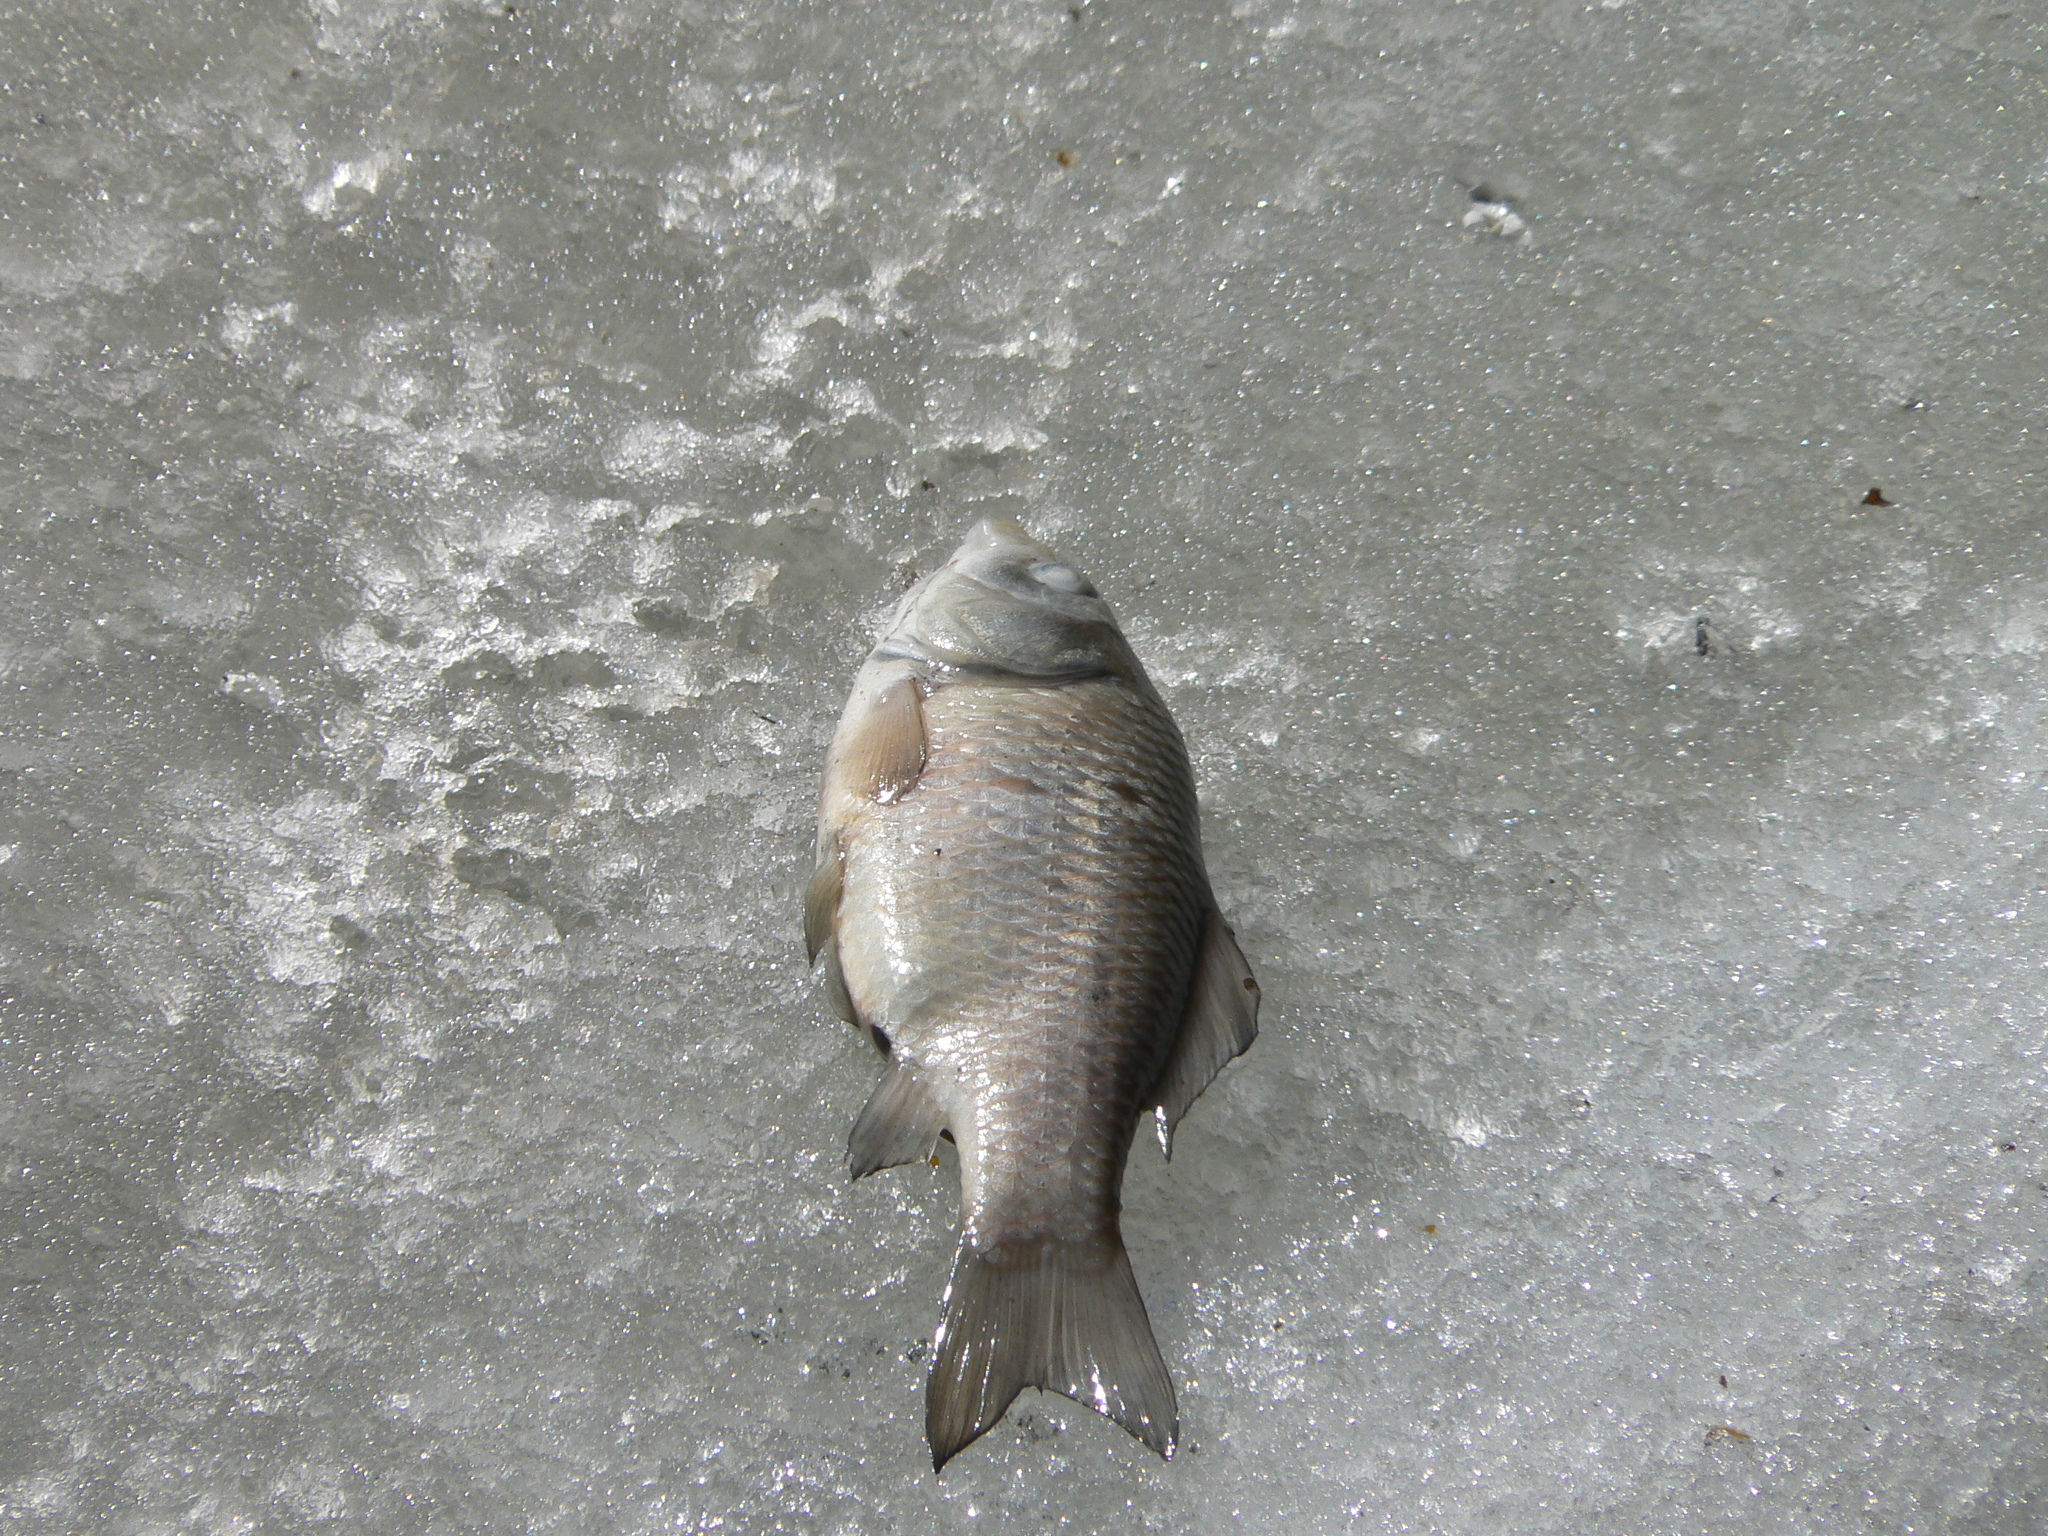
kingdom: Animalia
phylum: Chordata
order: Cypriniformes
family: Cyprinidae
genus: Carassius
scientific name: Carassius gibelio
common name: Prussian carp
